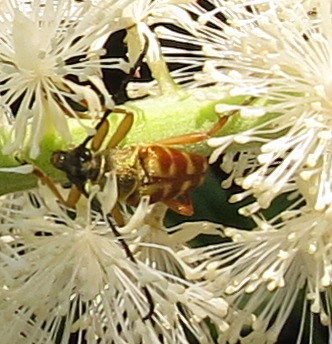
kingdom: Animalia
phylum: Arthropoda
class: Insecta
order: Coleoptera
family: Cerambycidae
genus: Typocerus
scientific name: Typocerus velutinus
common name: Banded longhorn beetle
